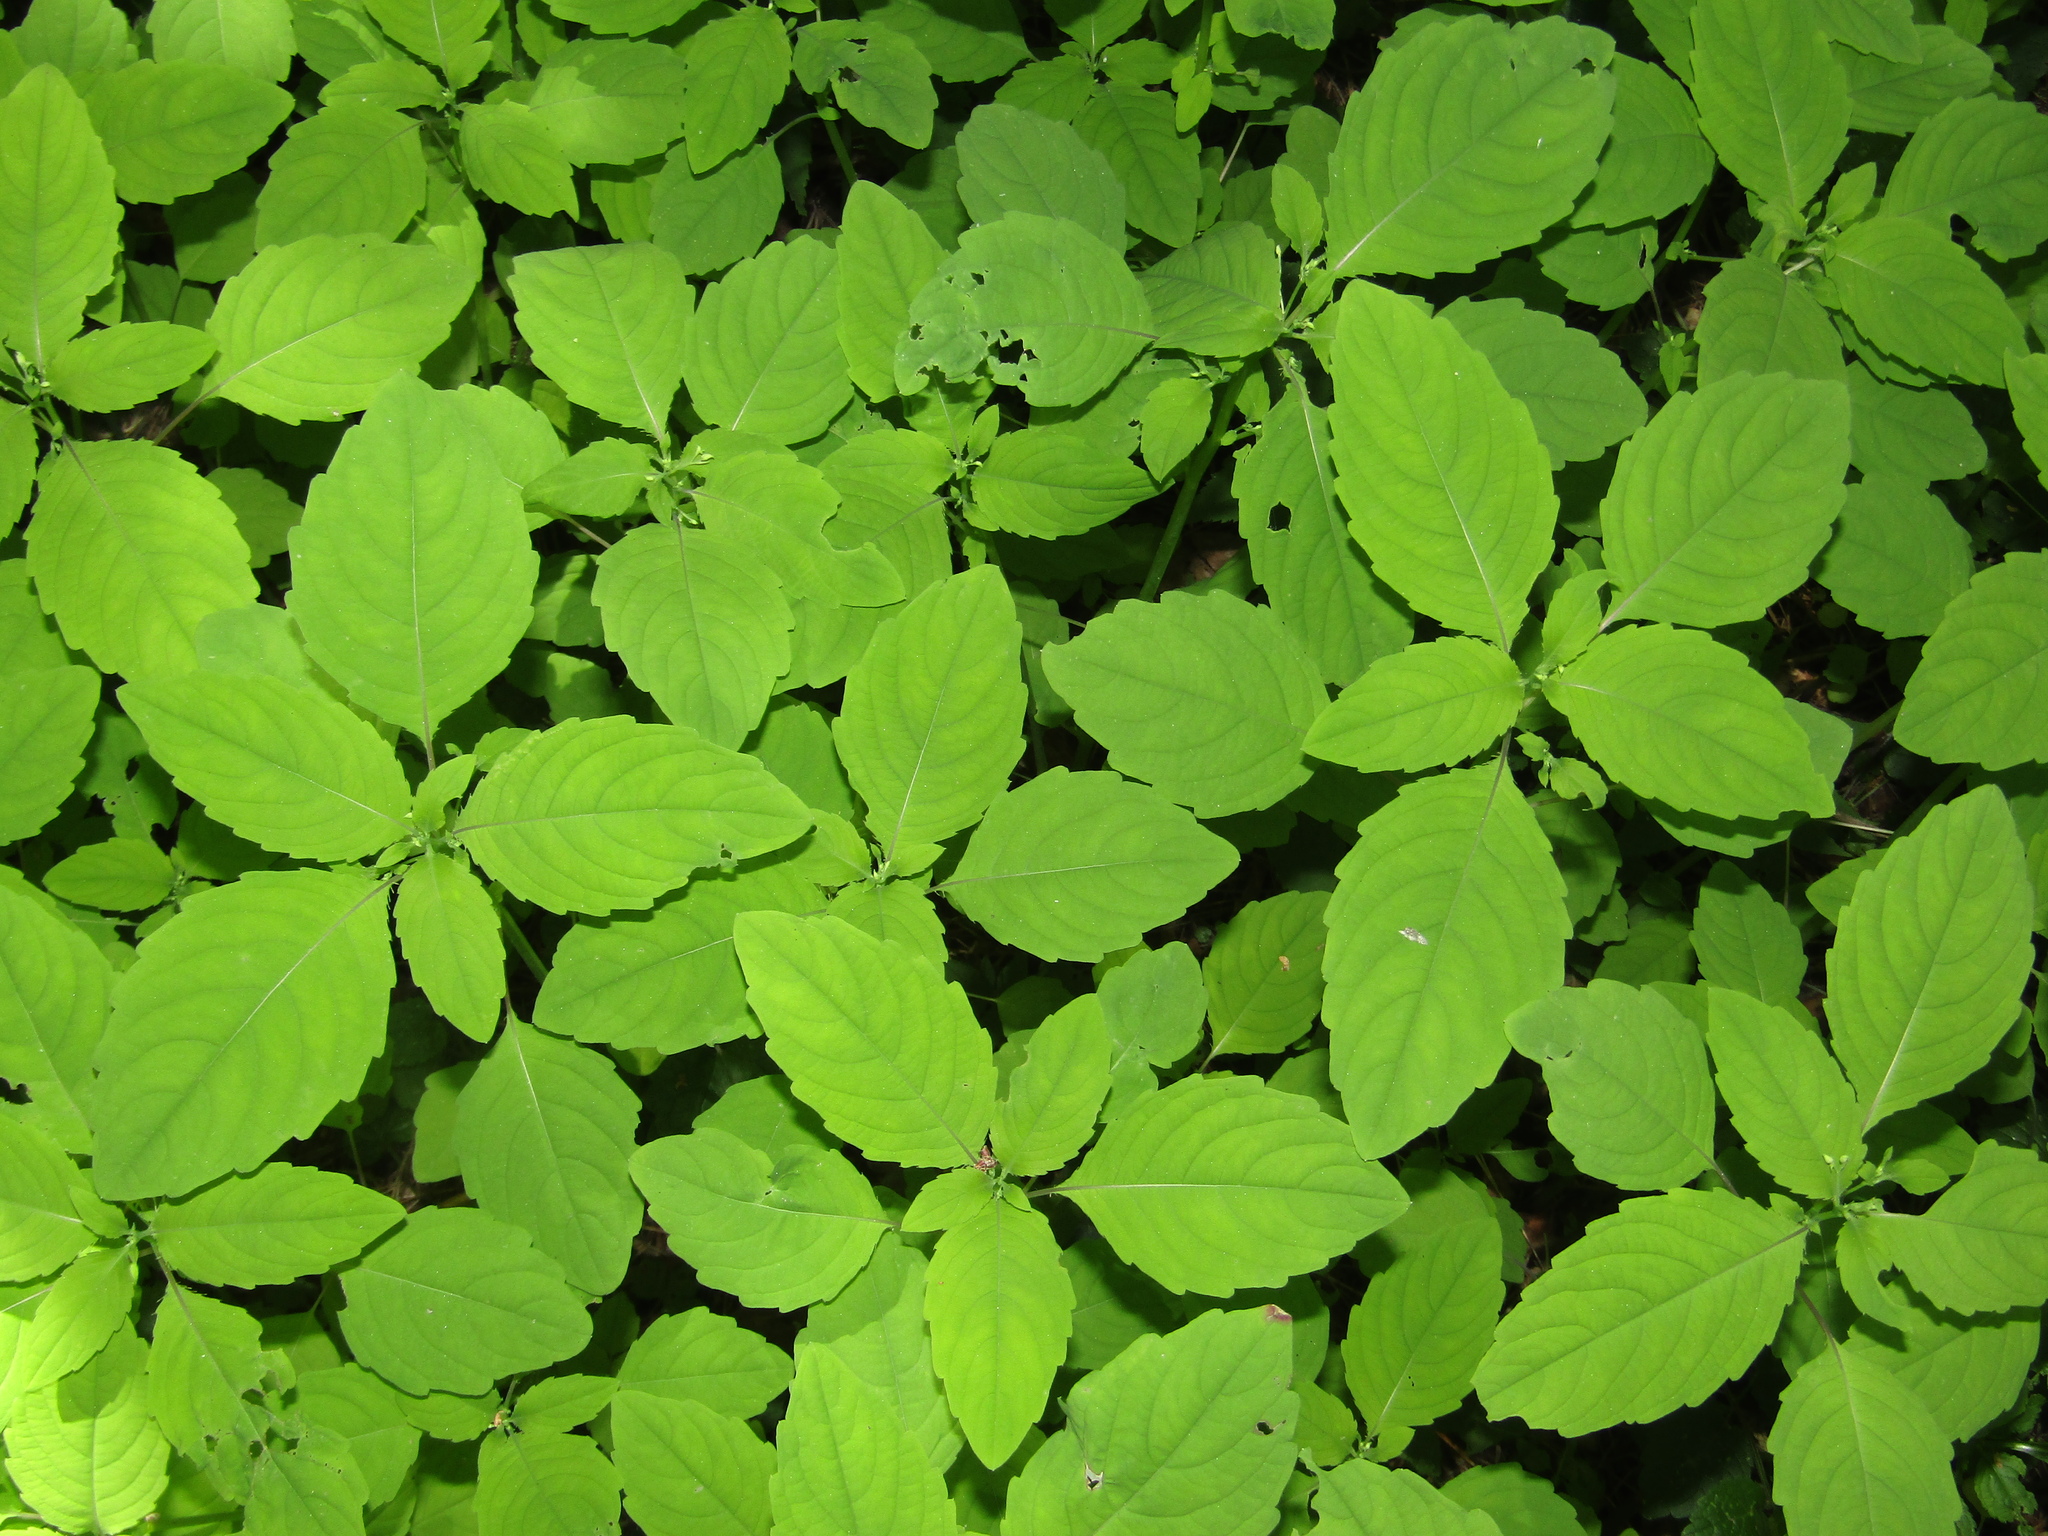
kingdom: Plantae
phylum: Tracheophyta
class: Magnoliopsida
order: Ericales
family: Balsaminaceae
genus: Impatiens
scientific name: Impatiens noli-tangere
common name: Touch-me-not balsam
